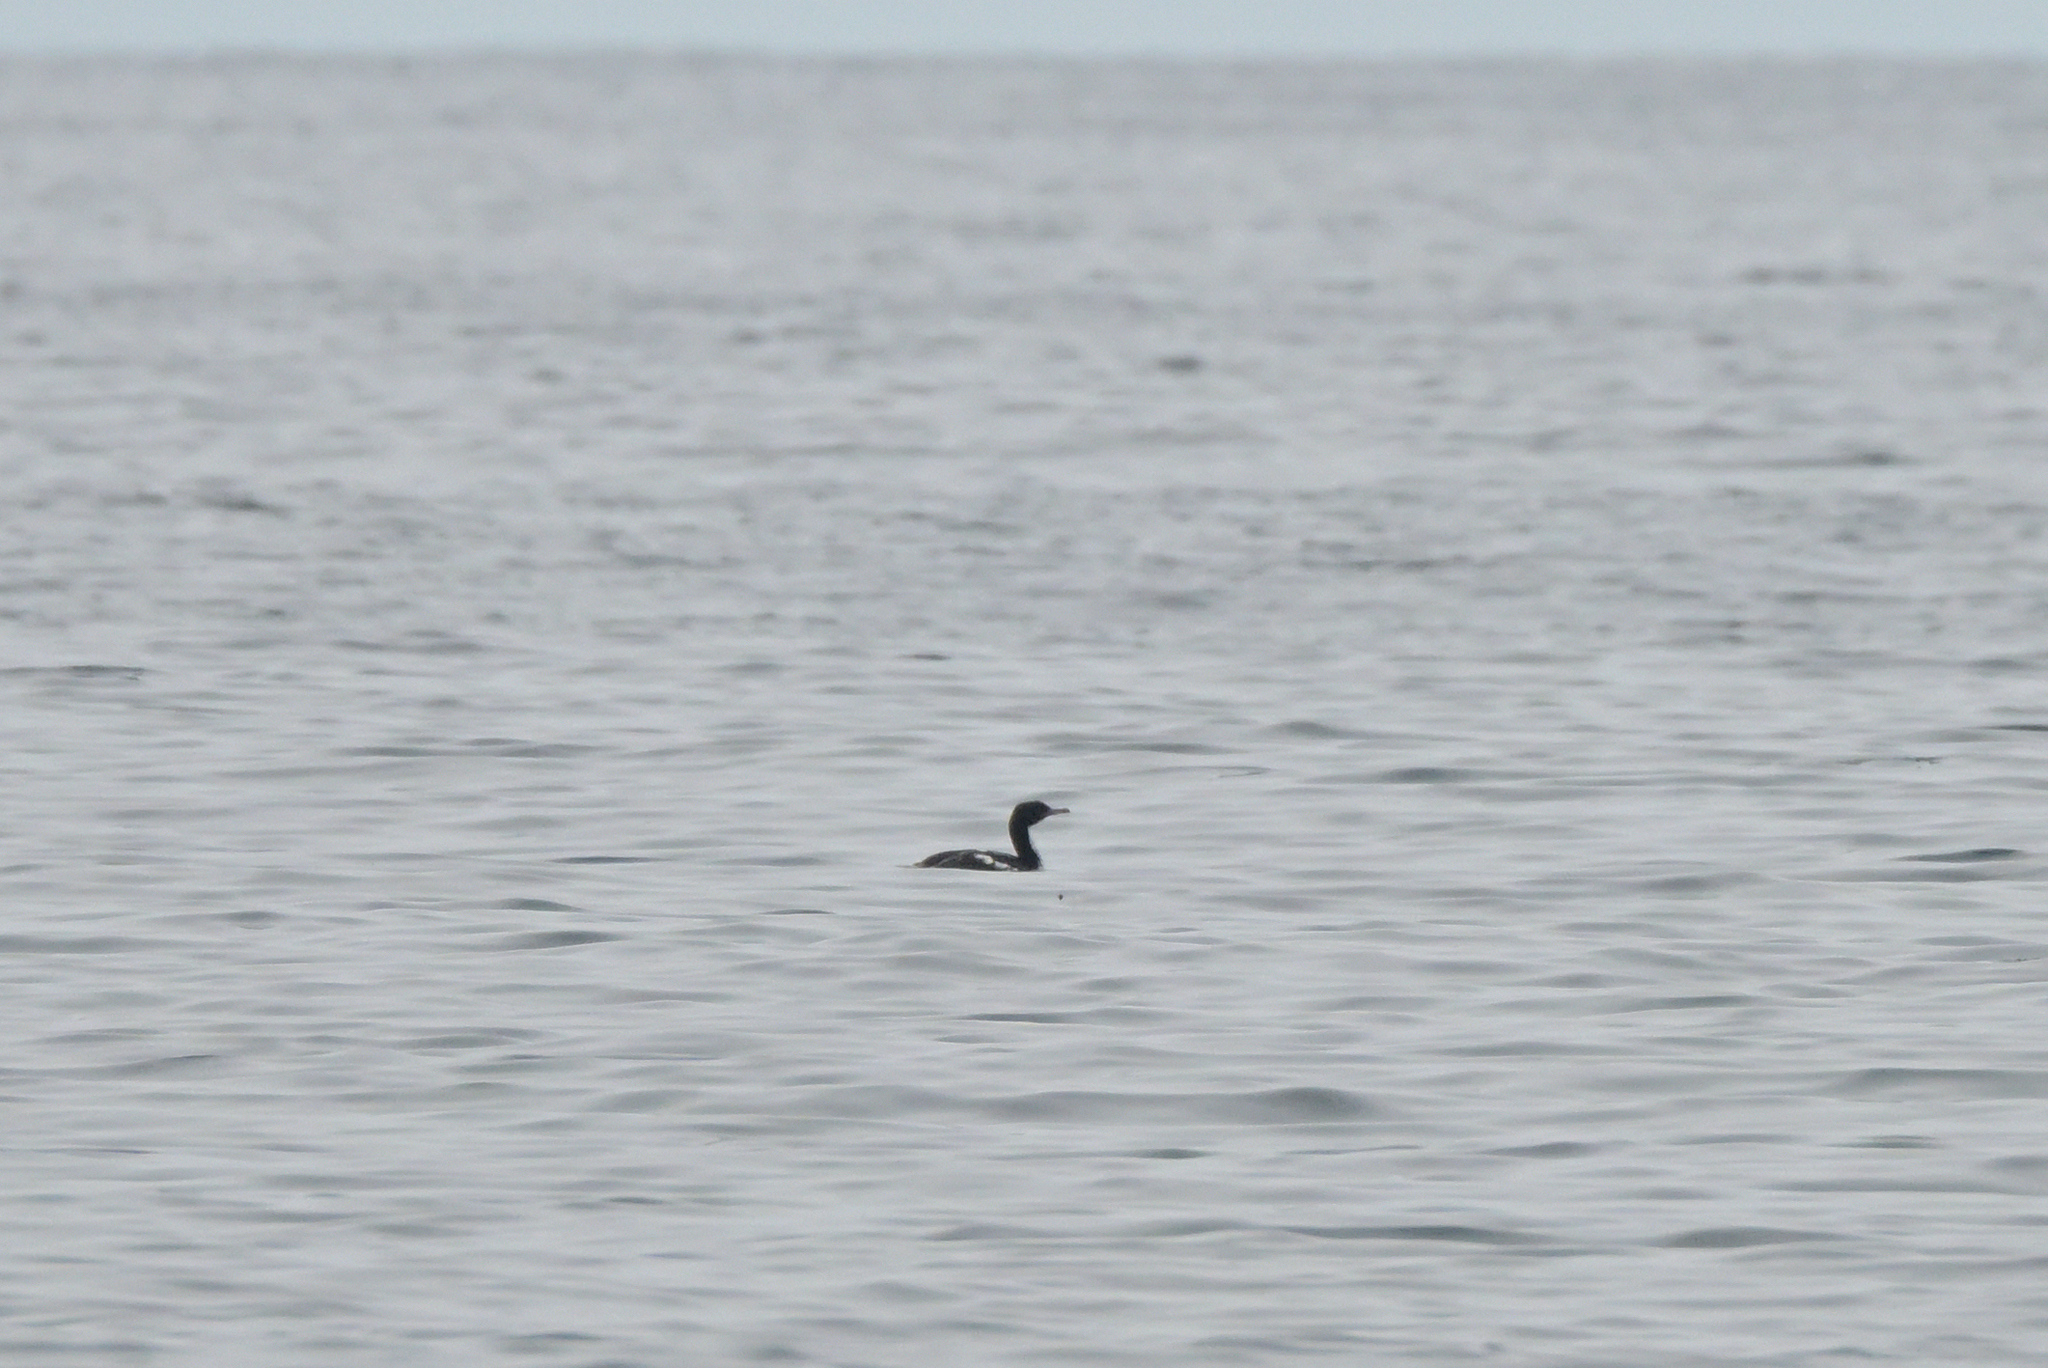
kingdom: Animalia
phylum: Chordata
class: Aves
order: Suliformes
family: Phalacrocoracidae
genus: Leucocarbo
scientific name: Leucocarbo chalconotus
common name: Stewart shag
